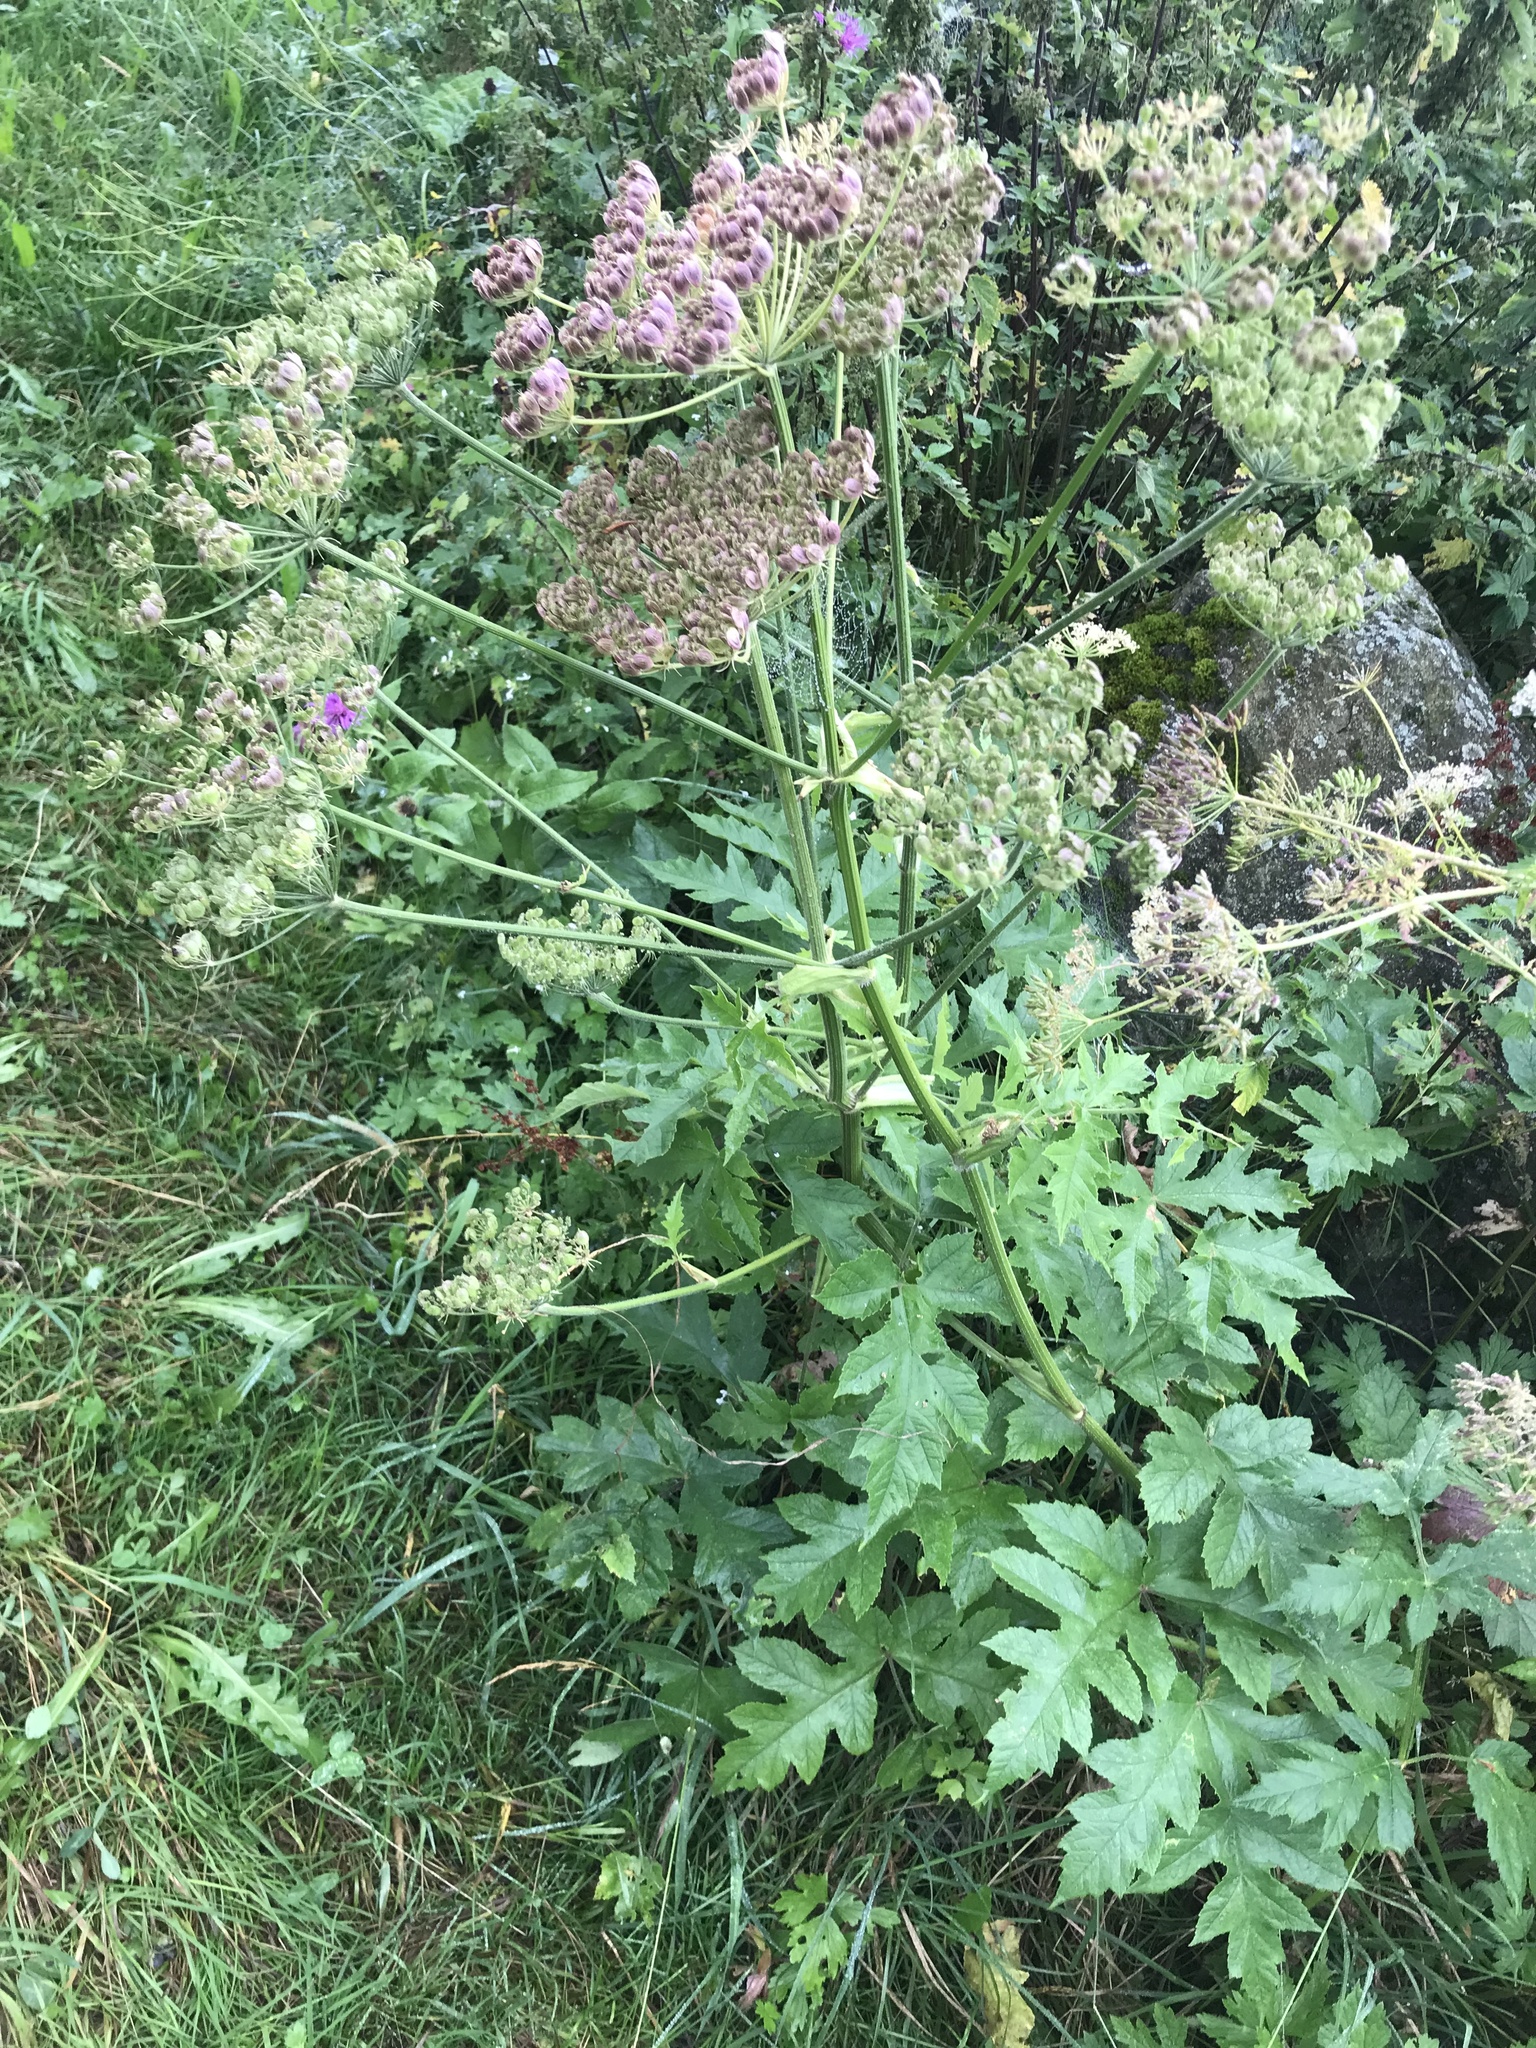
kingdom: Plantae
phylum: Tracheophyta
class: Magnoliopsida
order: Apiales
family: Apiaceae
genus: Heracleum
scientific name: Heracleum sphondylium
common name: Hogweed
